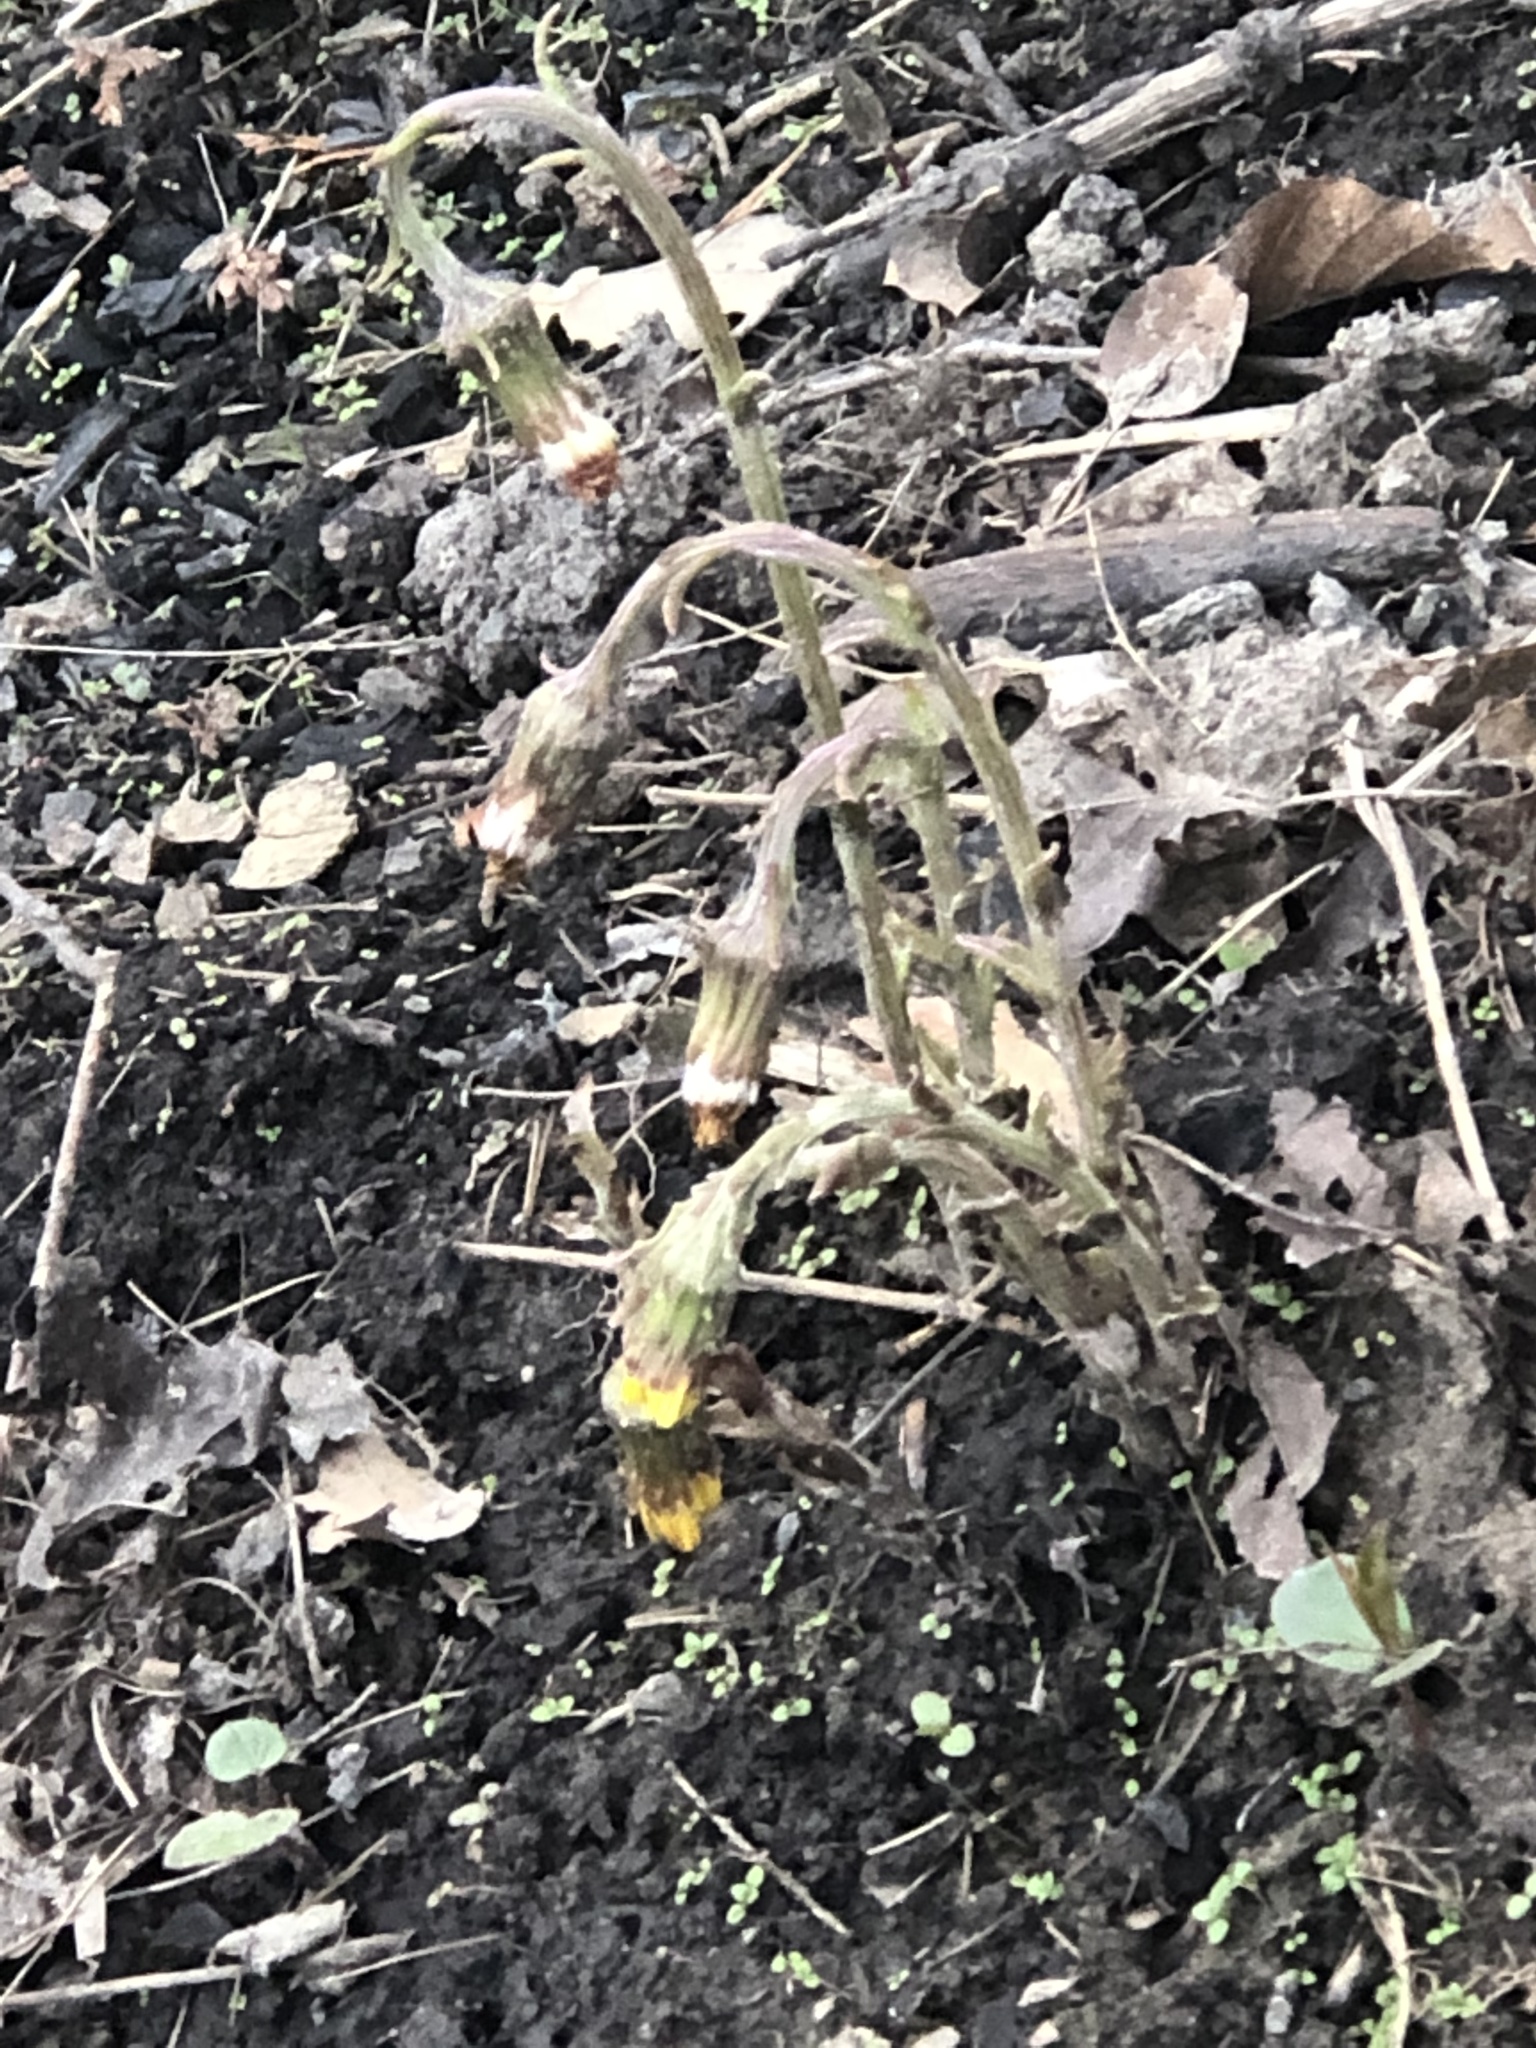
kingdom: Plantae
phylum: Tracheophyta
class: Magnoliopsida
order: Asterales
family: Asteraceae
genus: Tussilago
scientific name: Tussilago farfara
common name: Coltsfoot
